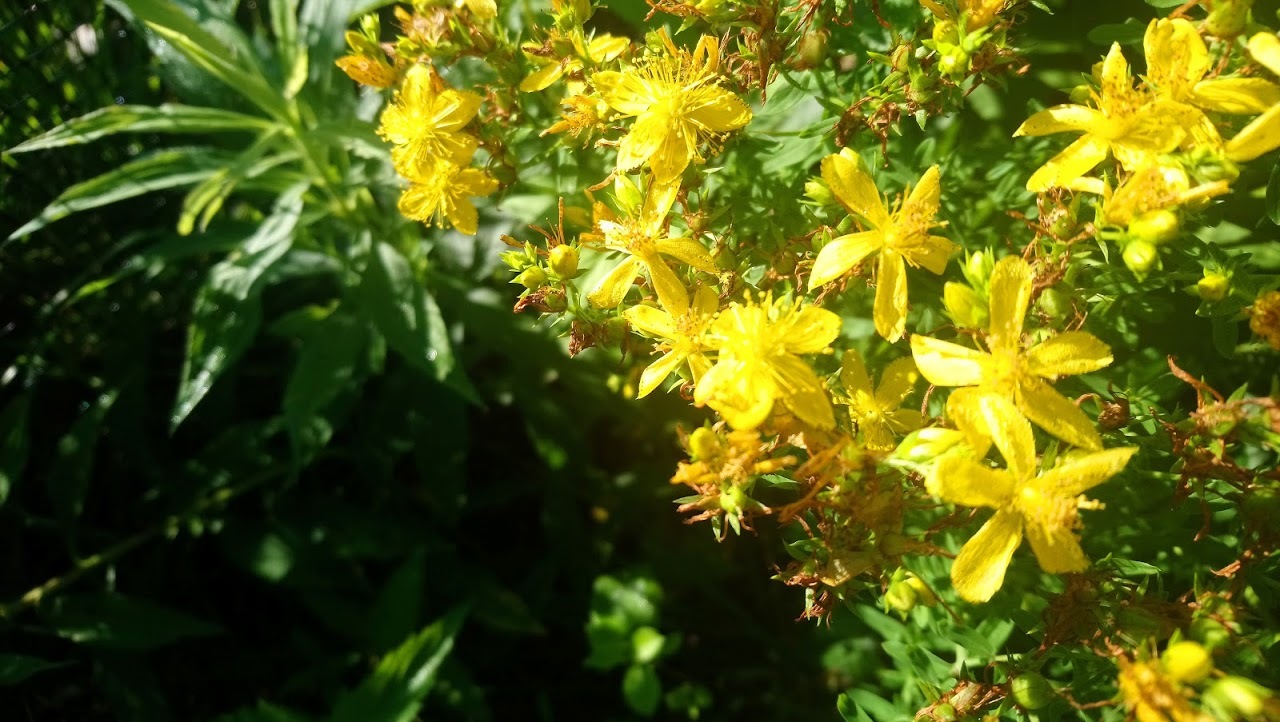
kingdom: Plantae
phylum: Tracheophyta
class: Magnoliopsida
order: Malpighiales
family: Hypericaceae
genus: Hypericum
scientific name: Hypericum perforatum
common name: Common st. johnswort
